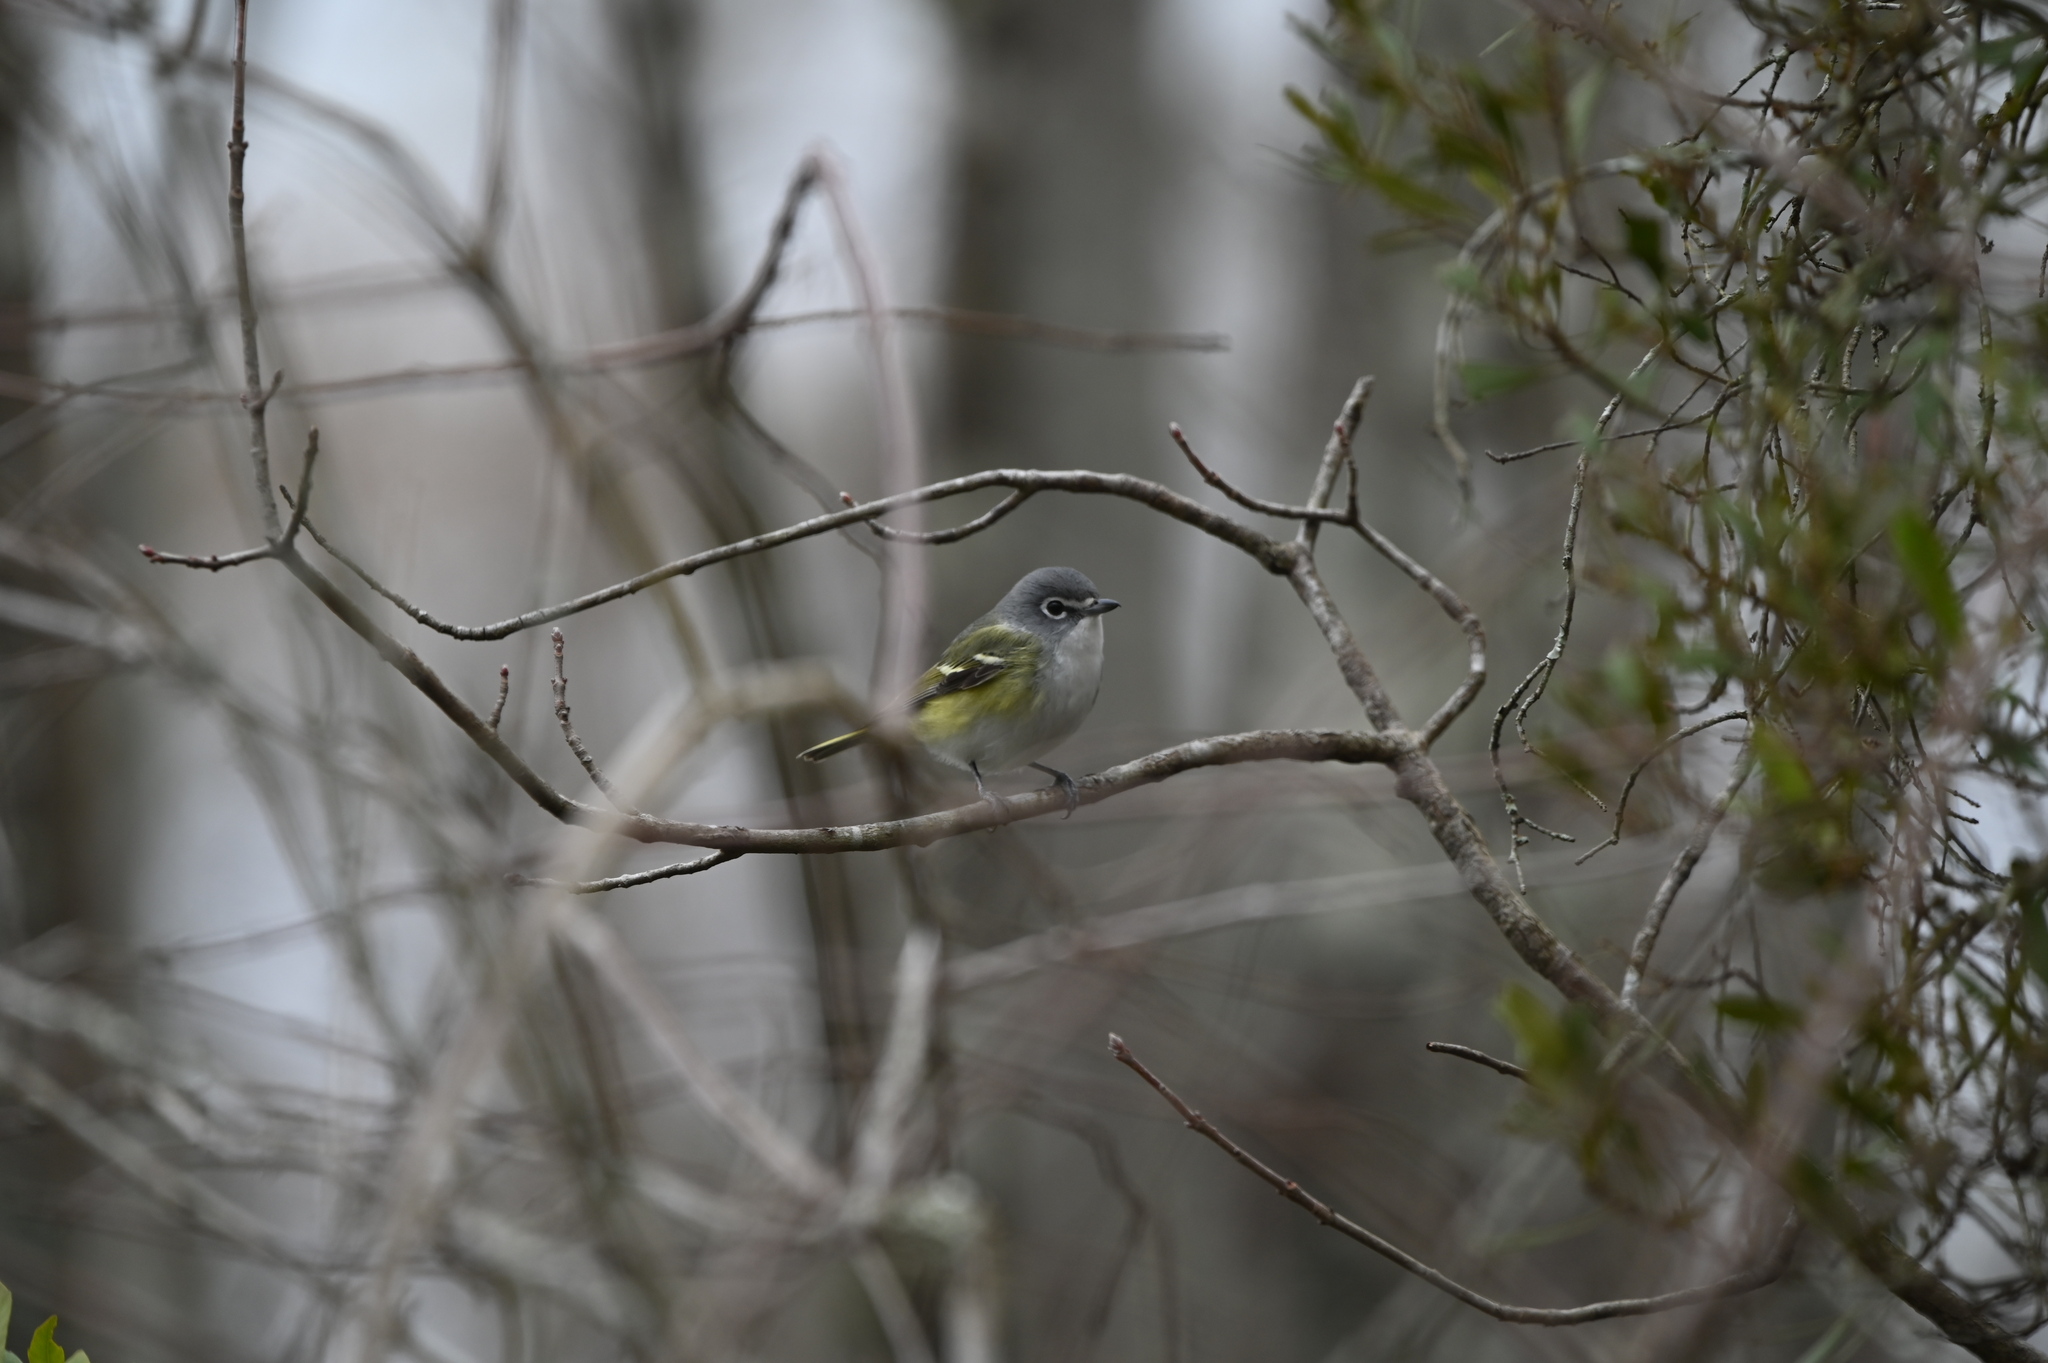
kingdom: Animalia
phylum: Chordata
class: Aves
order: Passeriformes
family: Vireonidae
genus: Vireo
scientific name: Vireo solitarius
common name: Blue-headed vireo
